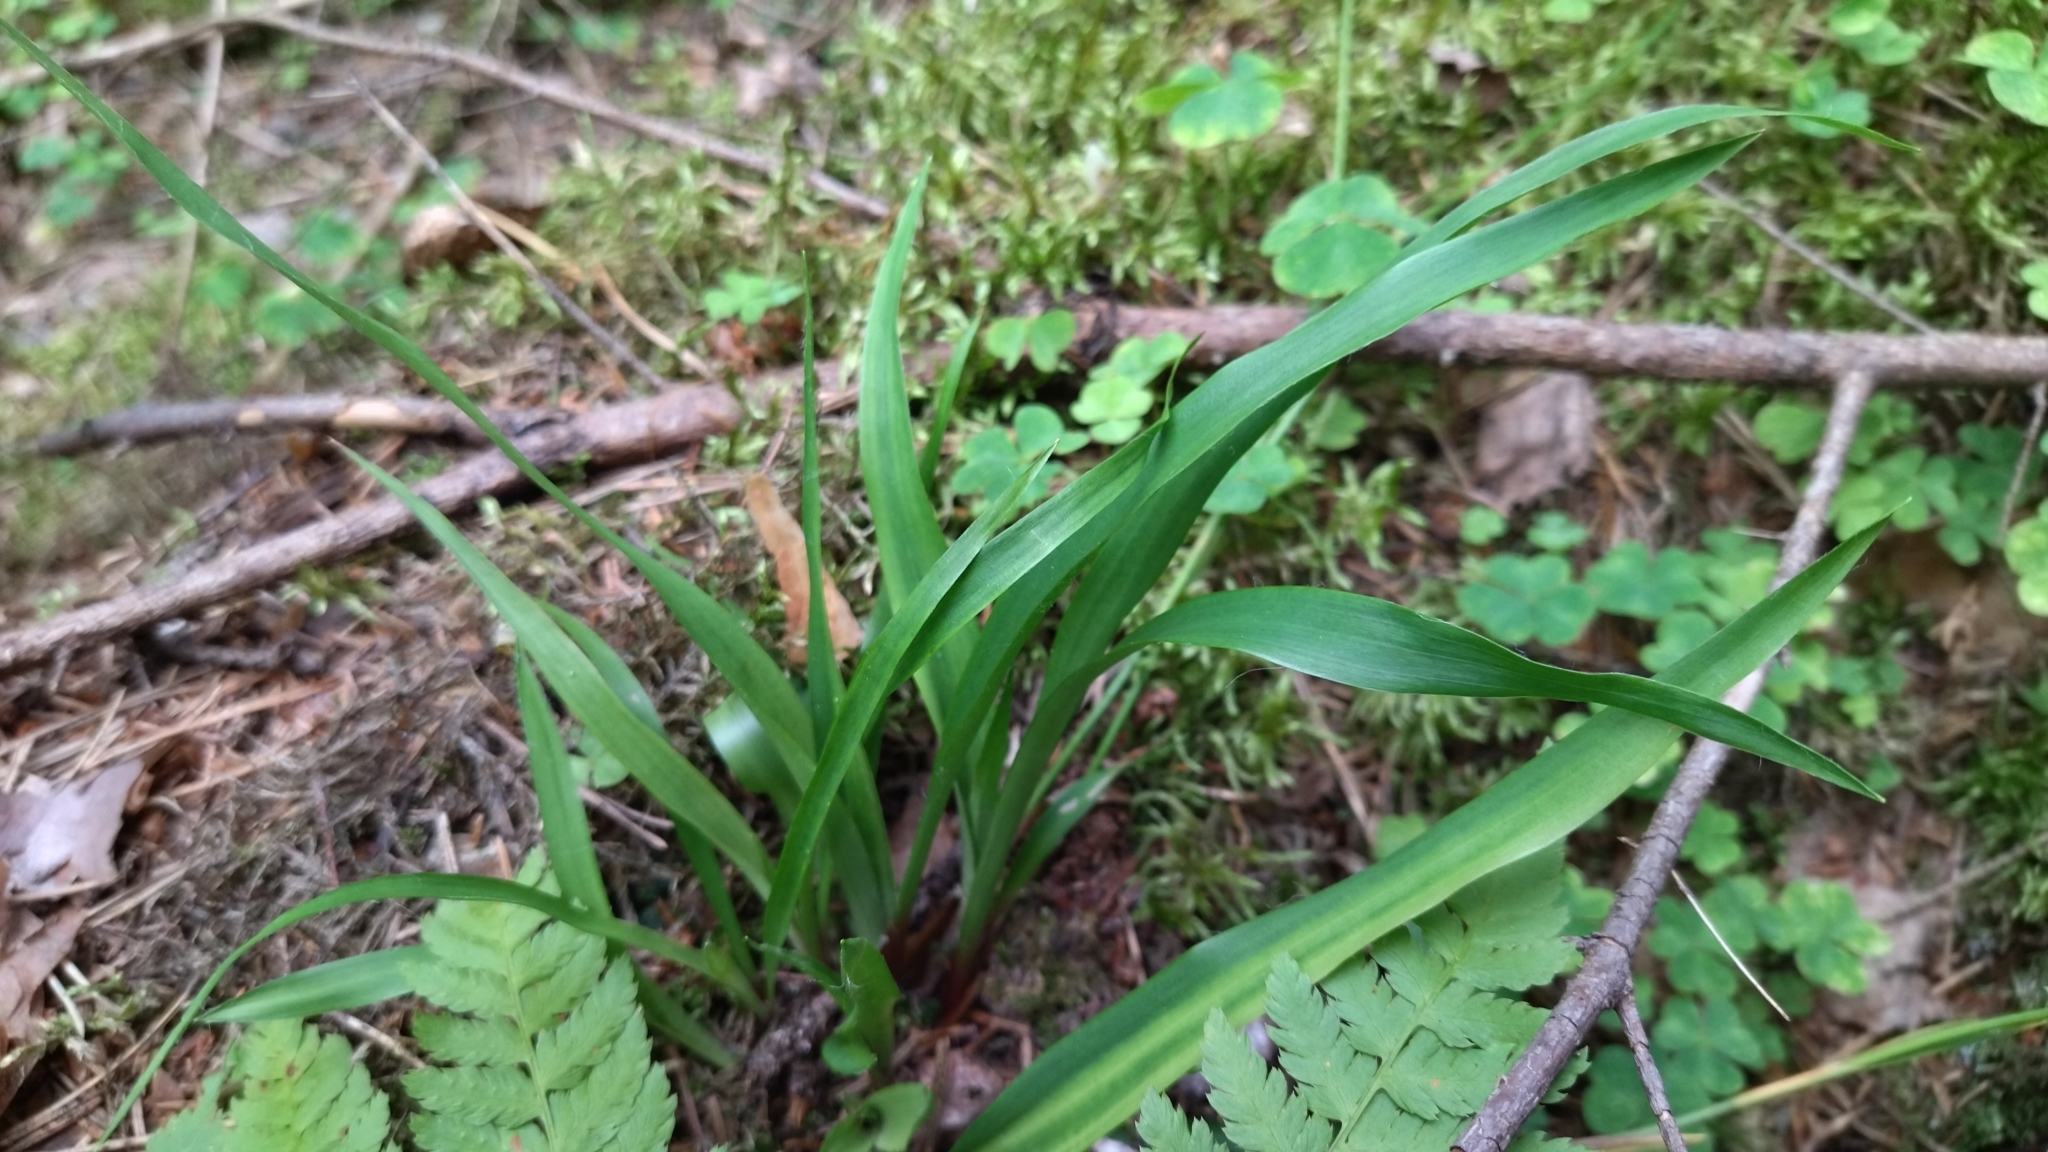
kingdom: Plantae
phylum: Tracheophyta
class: Liliopsida
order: Poales
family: Juncaceae
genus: Luzula
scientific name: Luzula pilosa
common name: Hairy wood-rush
